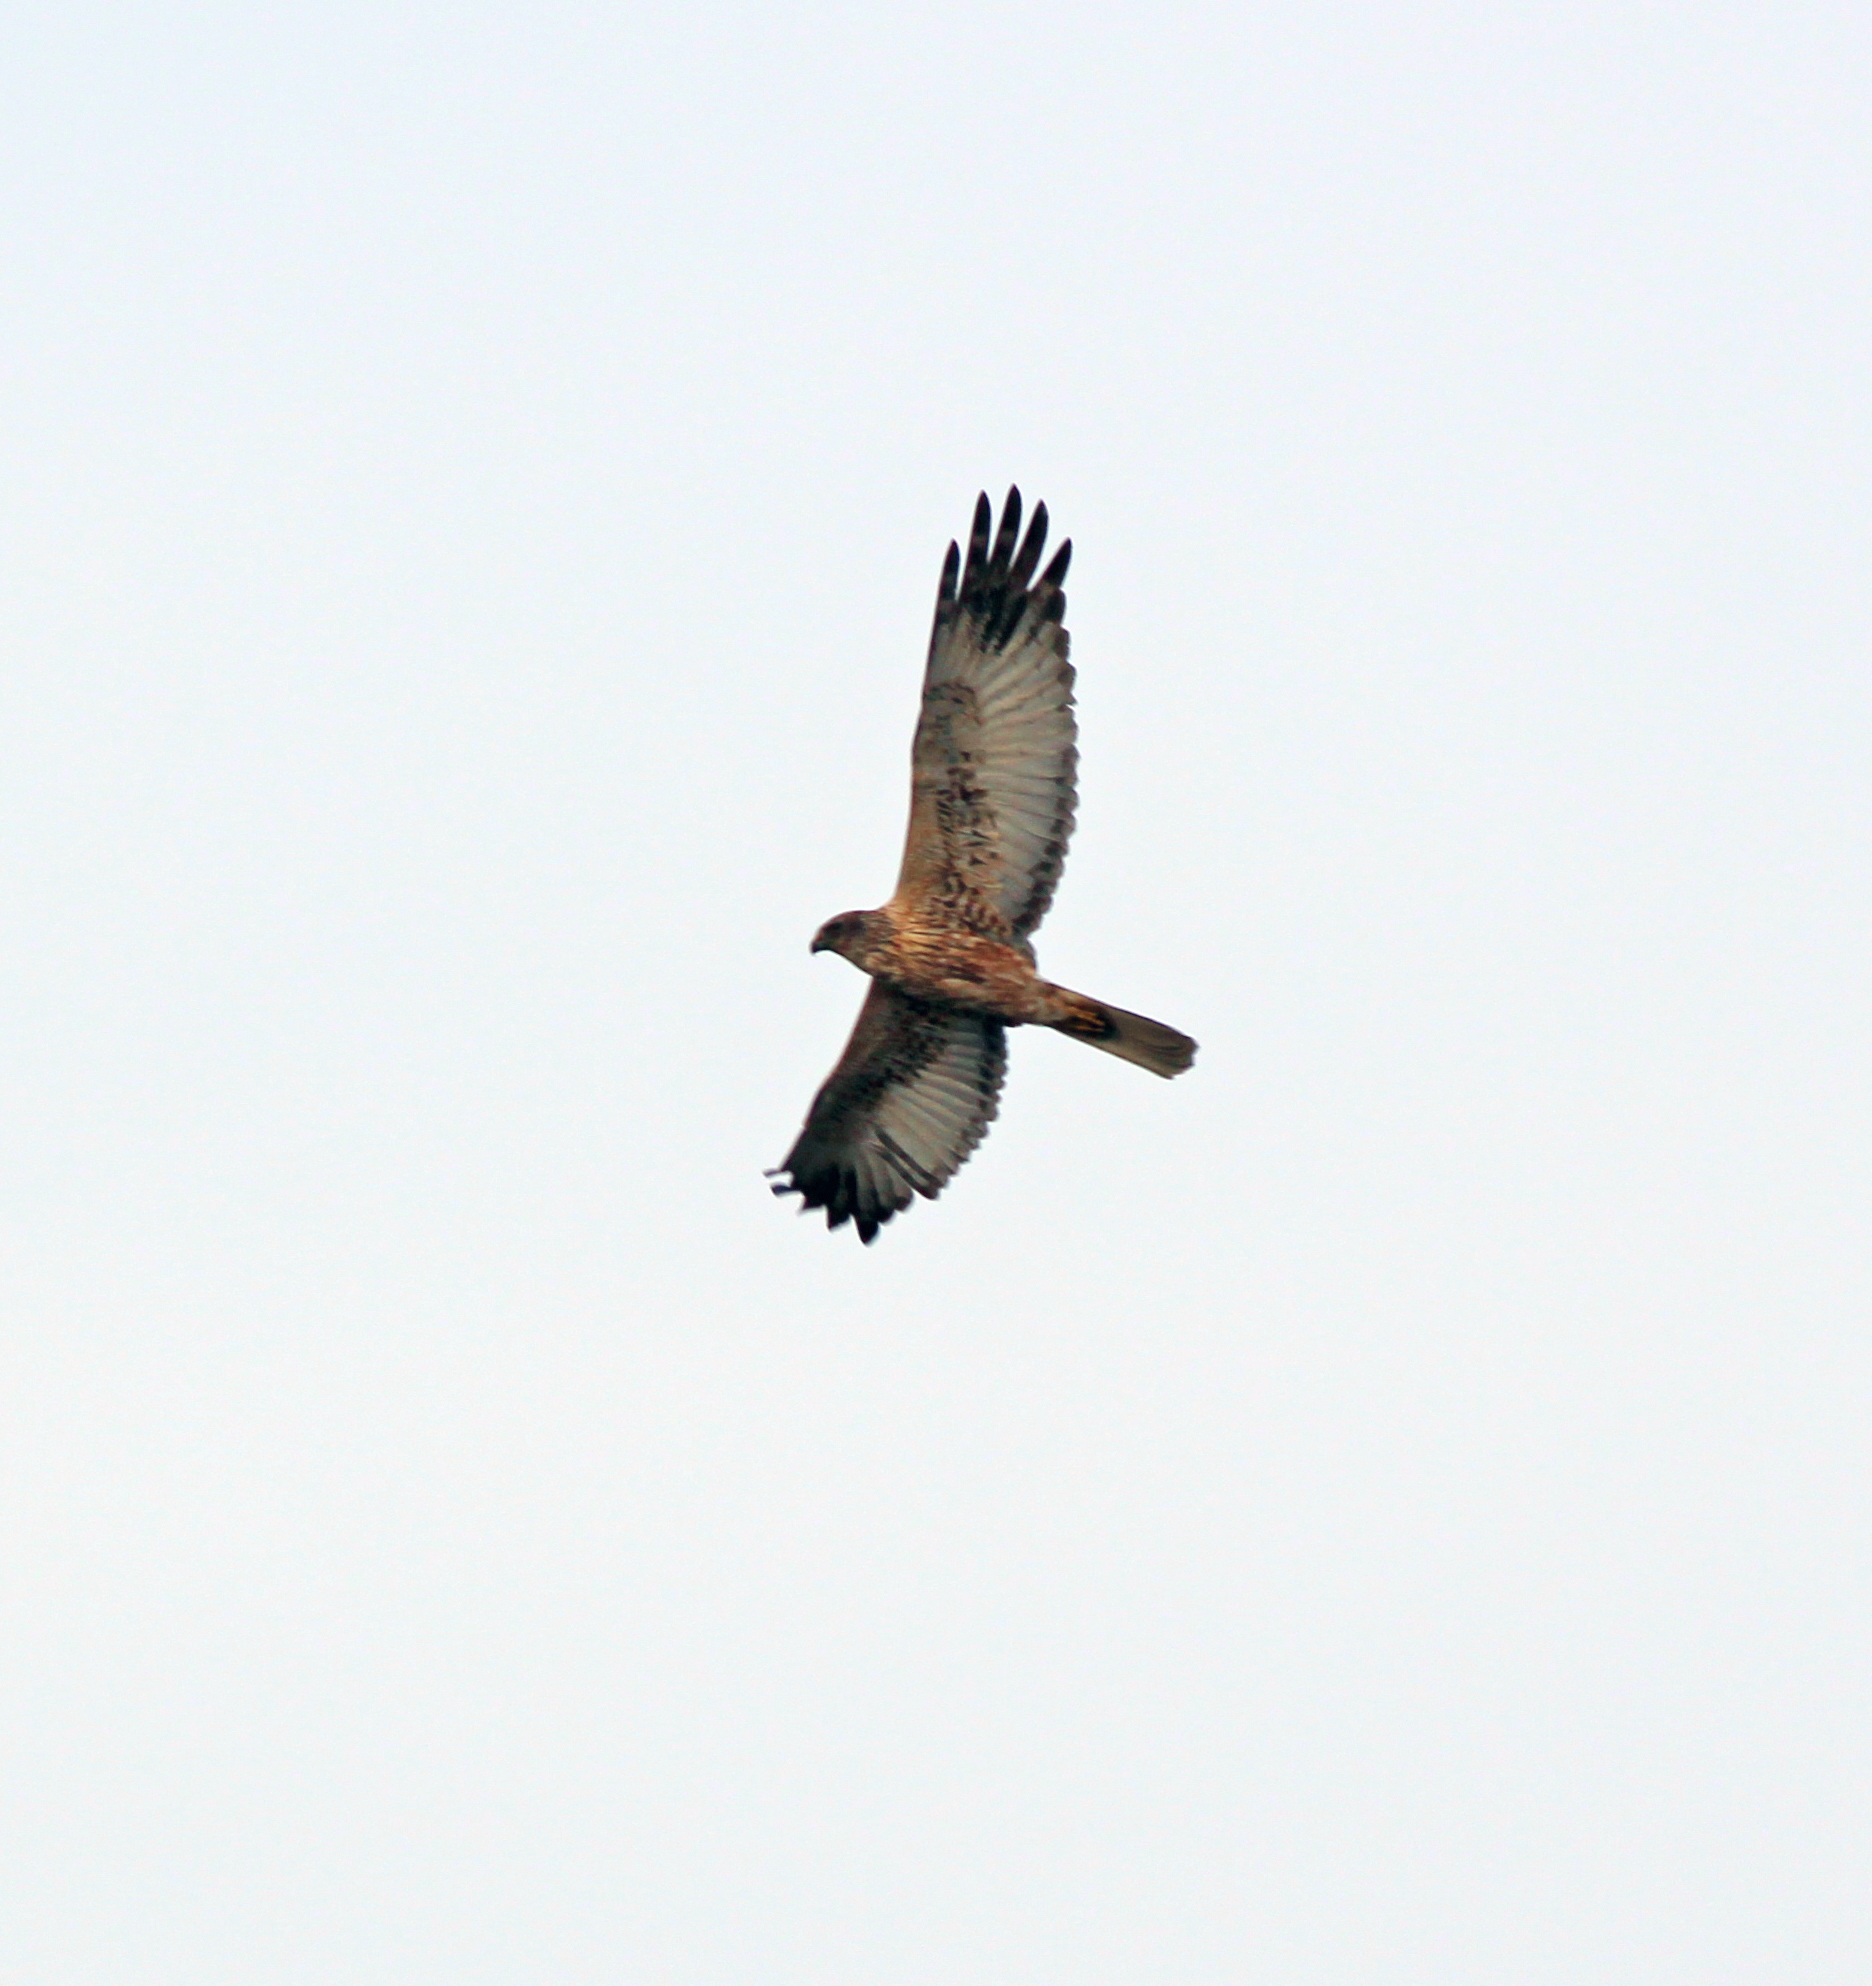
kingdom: Animalia
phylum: Chordata
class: Aves
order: Accipitriformes
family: Accipitridae
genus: Circus
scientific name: Circus spilonotus
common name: Eastern marsh-harrier
